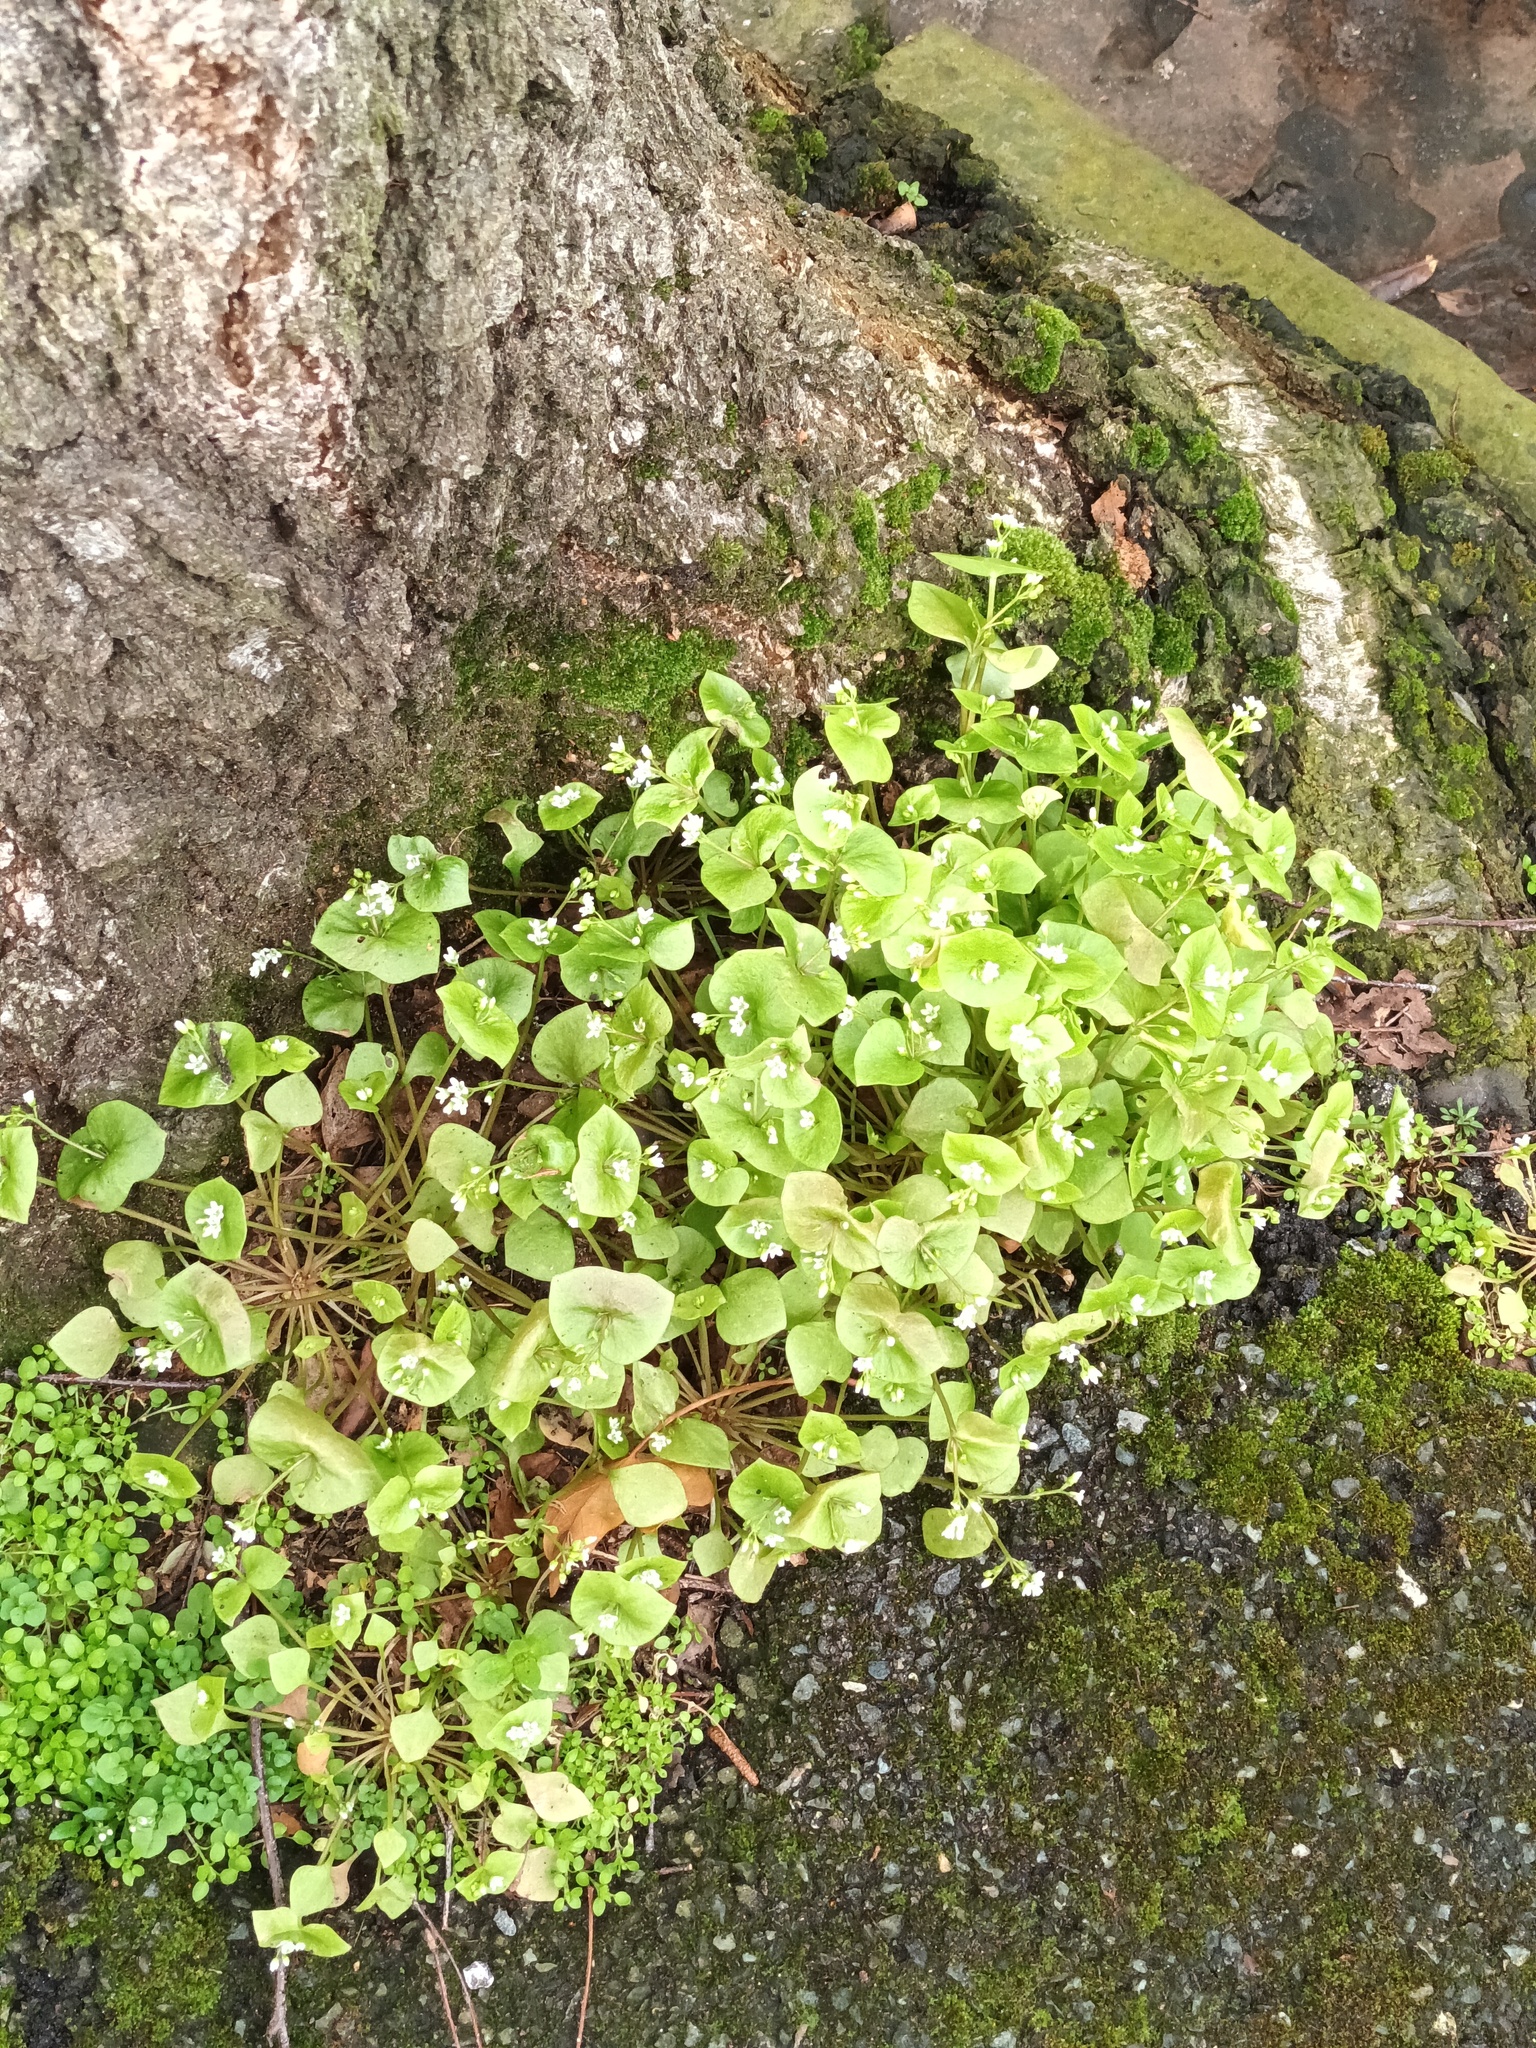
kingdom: Plantae
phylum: Tracheophyta
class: Magnoliopsida
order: Caryophyllales
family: Montiaceae
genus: Claytonia
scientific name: Claytonia perfoliata
